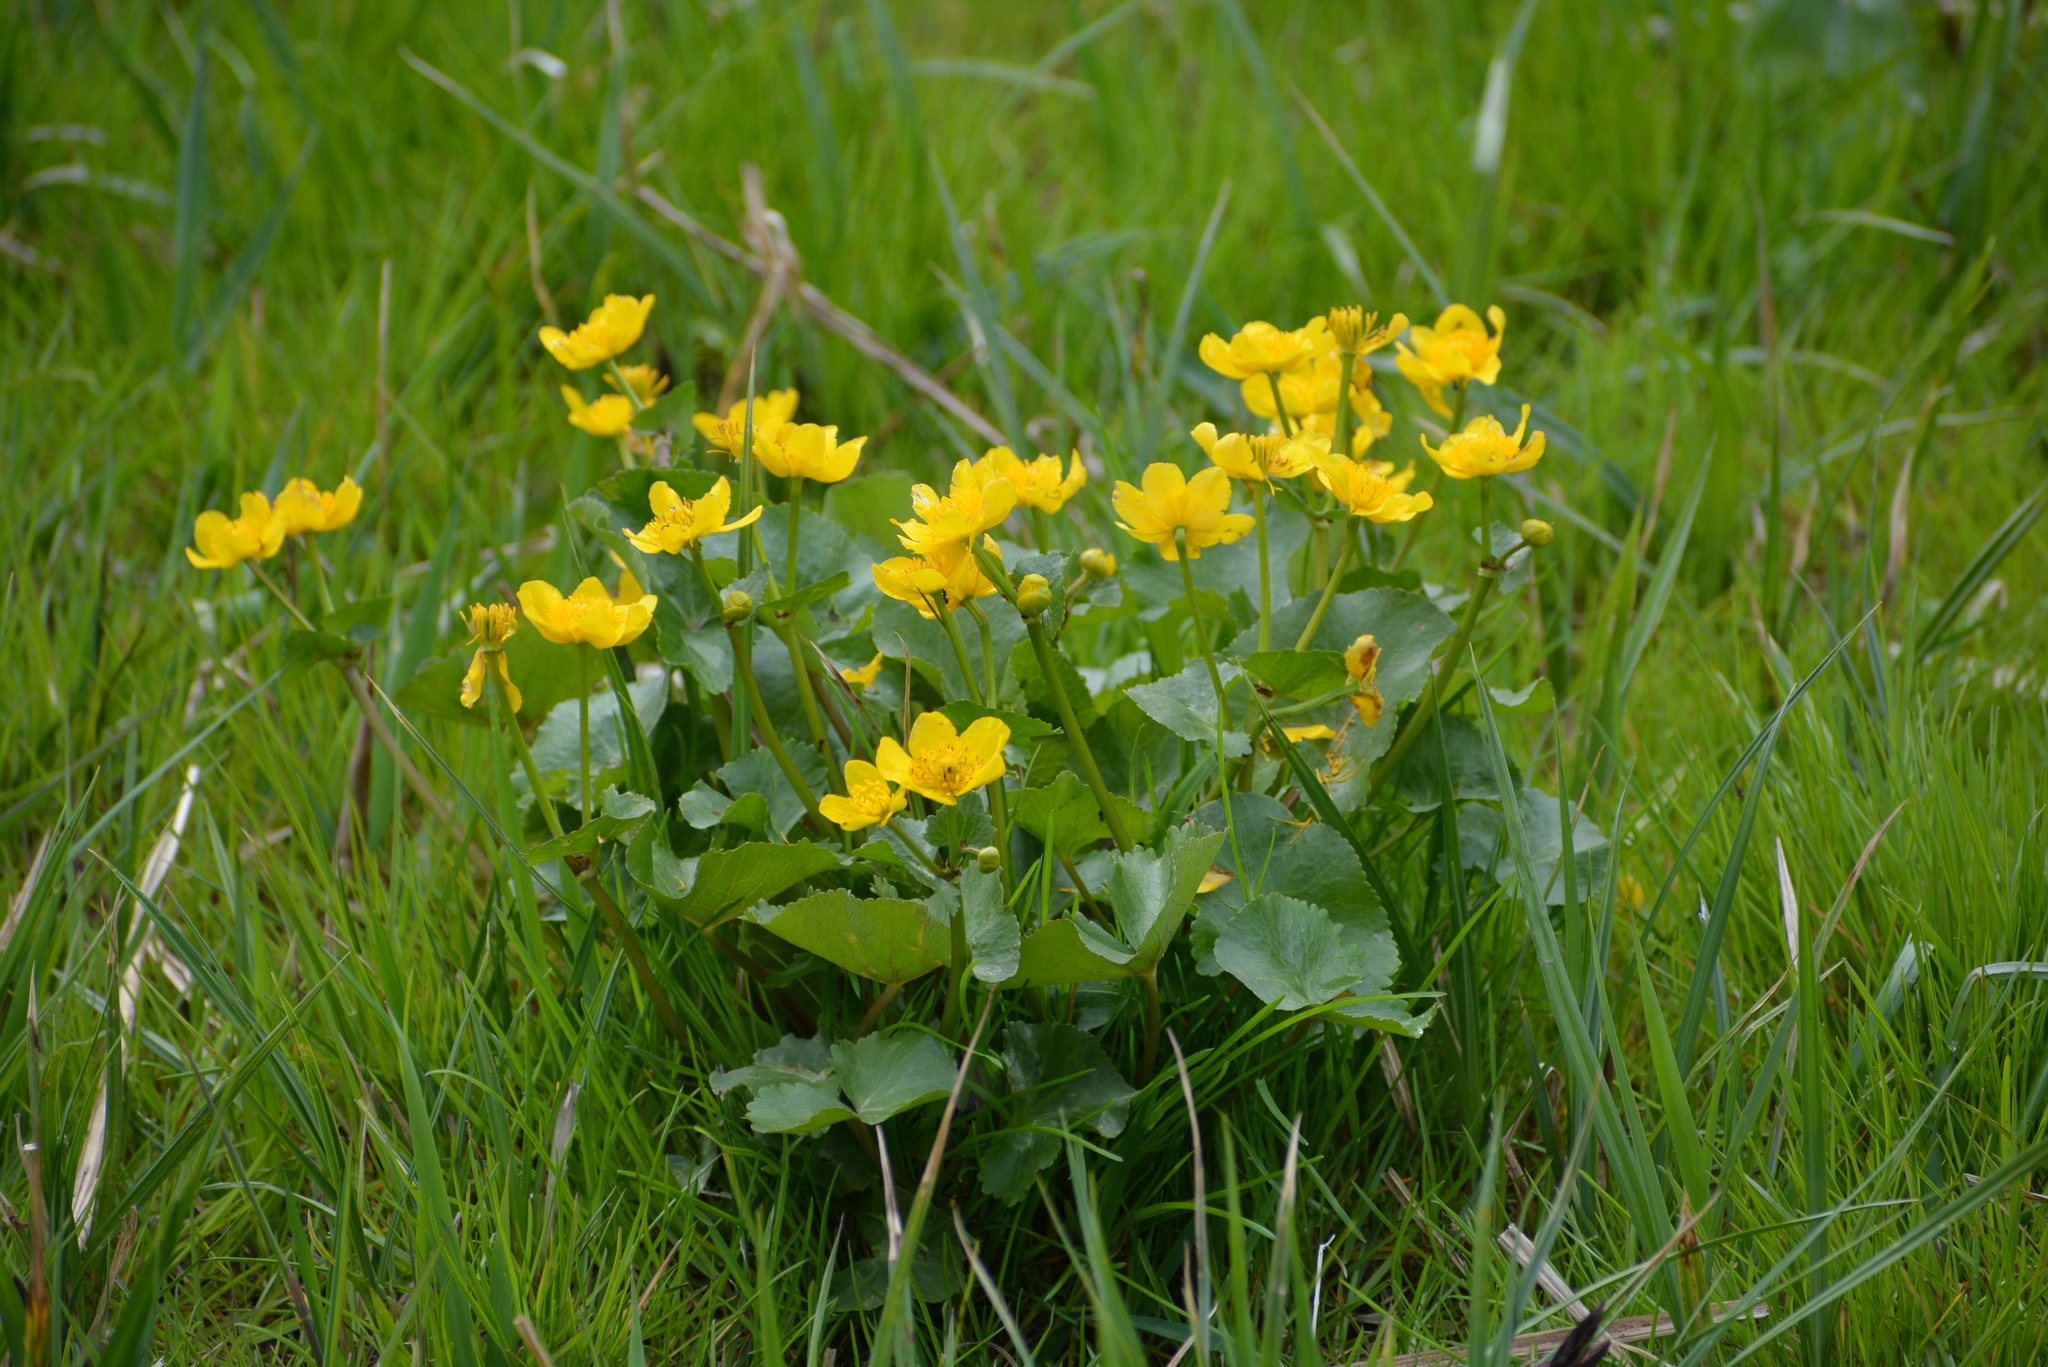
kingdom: Plantae
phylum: Tracheophyta
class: Magnoliopsida
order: Ranunculales
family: Ranunculaceae
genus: Caltha
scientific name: Caltha palustris
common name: Marsh marigold
